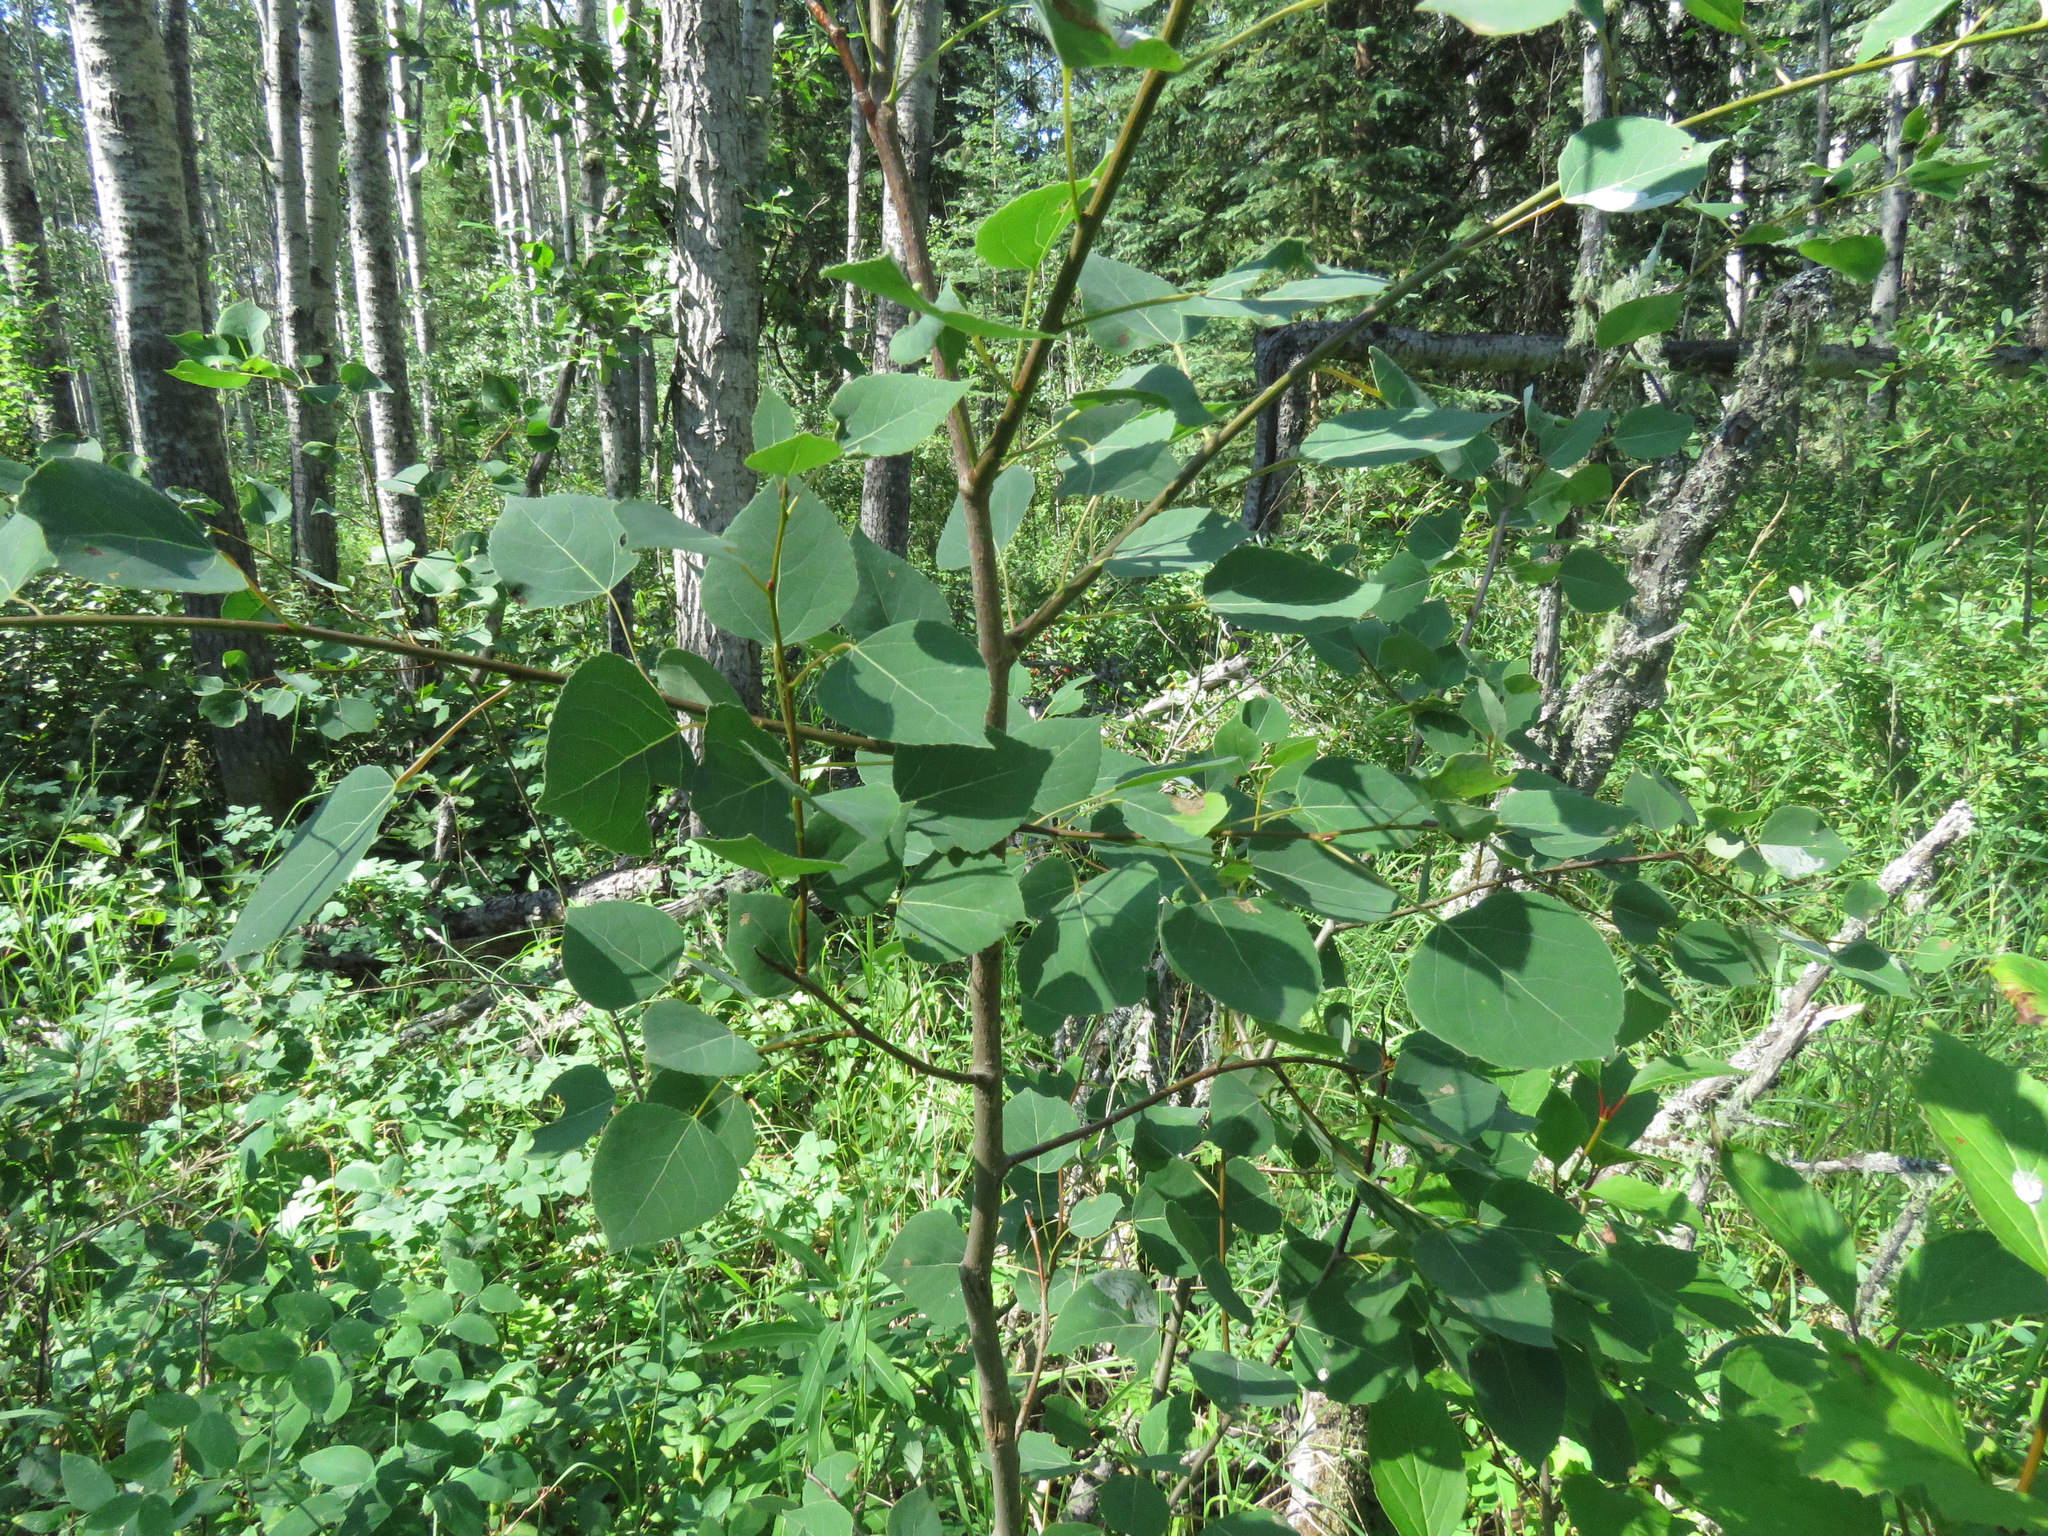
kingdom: Plantae
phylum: Tracheophyta
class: Magnoliopsida
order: Malpighiales
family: Salicaceae
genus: Populus
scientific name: Populus tremuloides
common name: Quaking aspen
